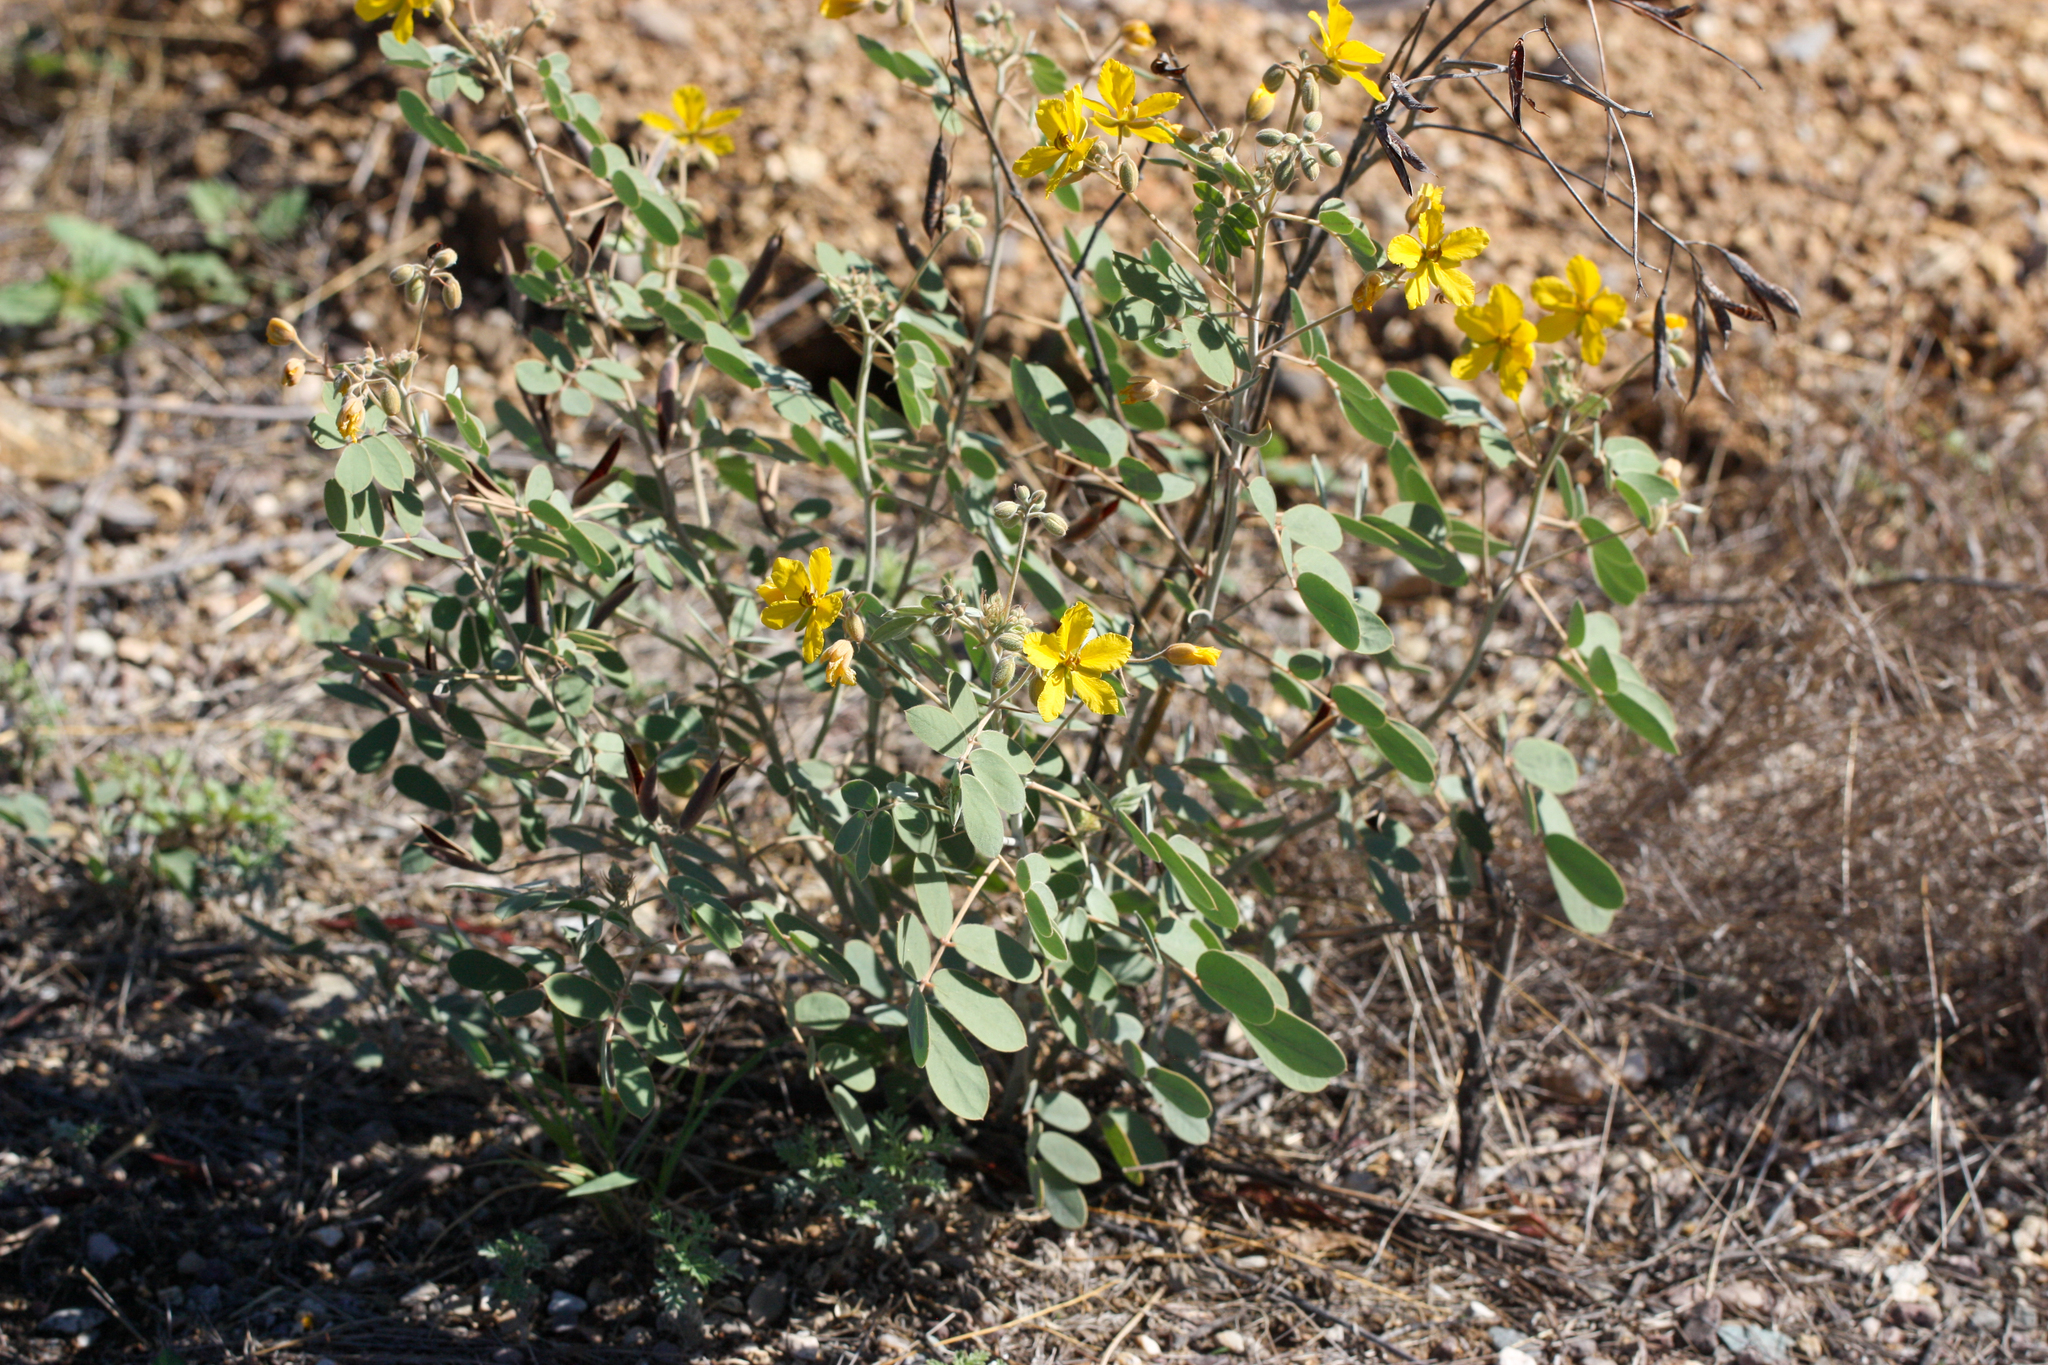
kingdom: Plantae
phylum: Tracheophyta
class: Magnoliopsida
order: Fabales
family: Fabaceae
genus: Senna
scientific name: Senna covesii
